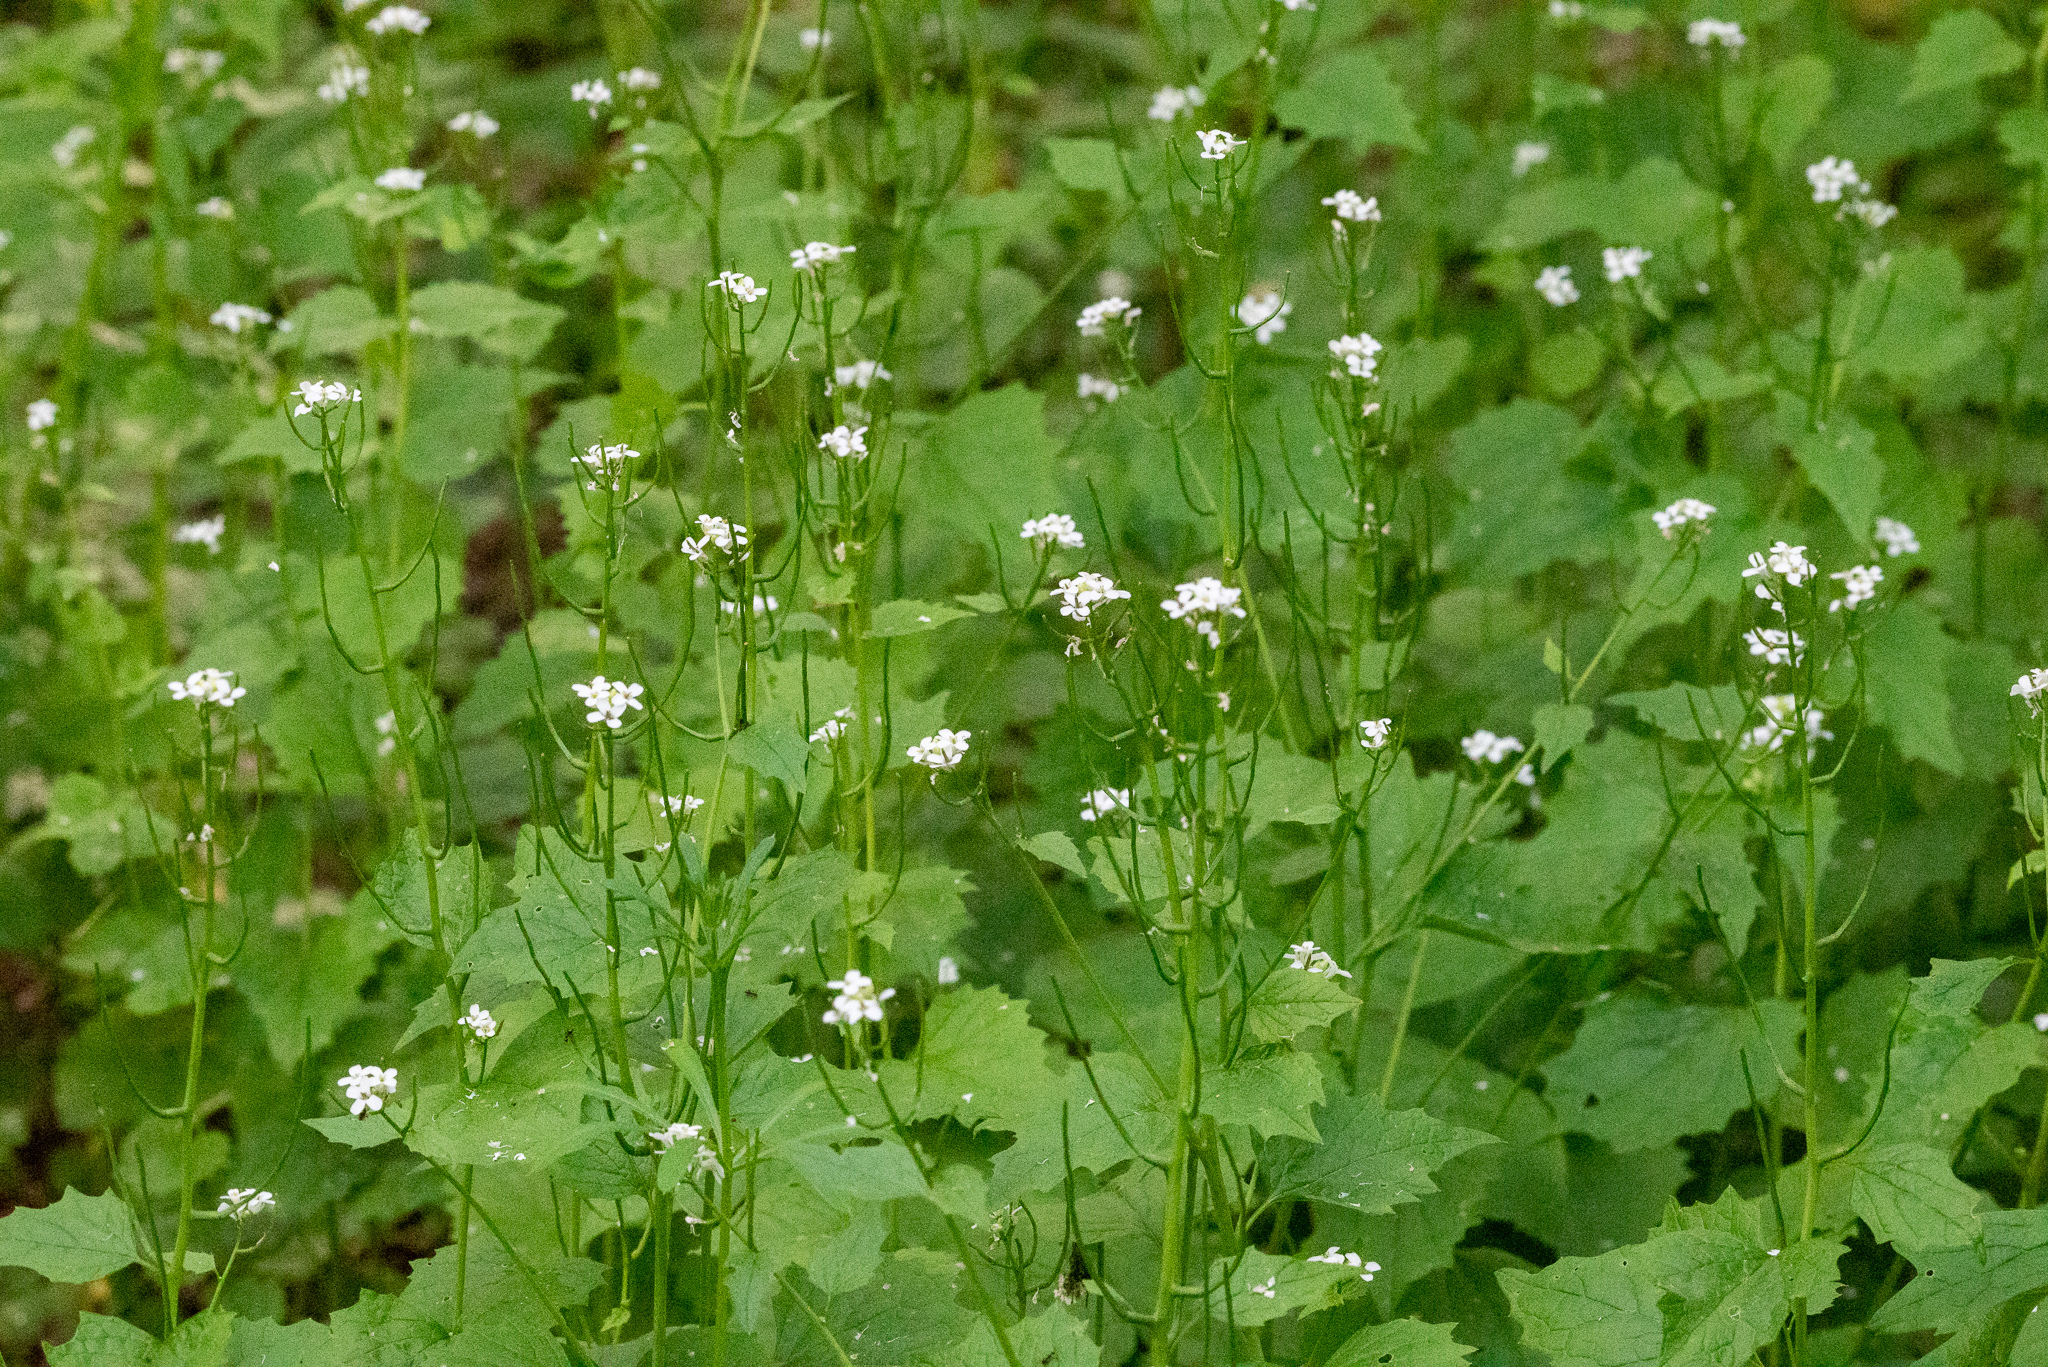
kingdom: Plantae
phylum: Tracheophyta
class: Magnoliopsida
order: Brassicales
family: Brassicaceae
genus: Alliaria
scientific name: Alliaria petiolata
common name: Garlic mustard
